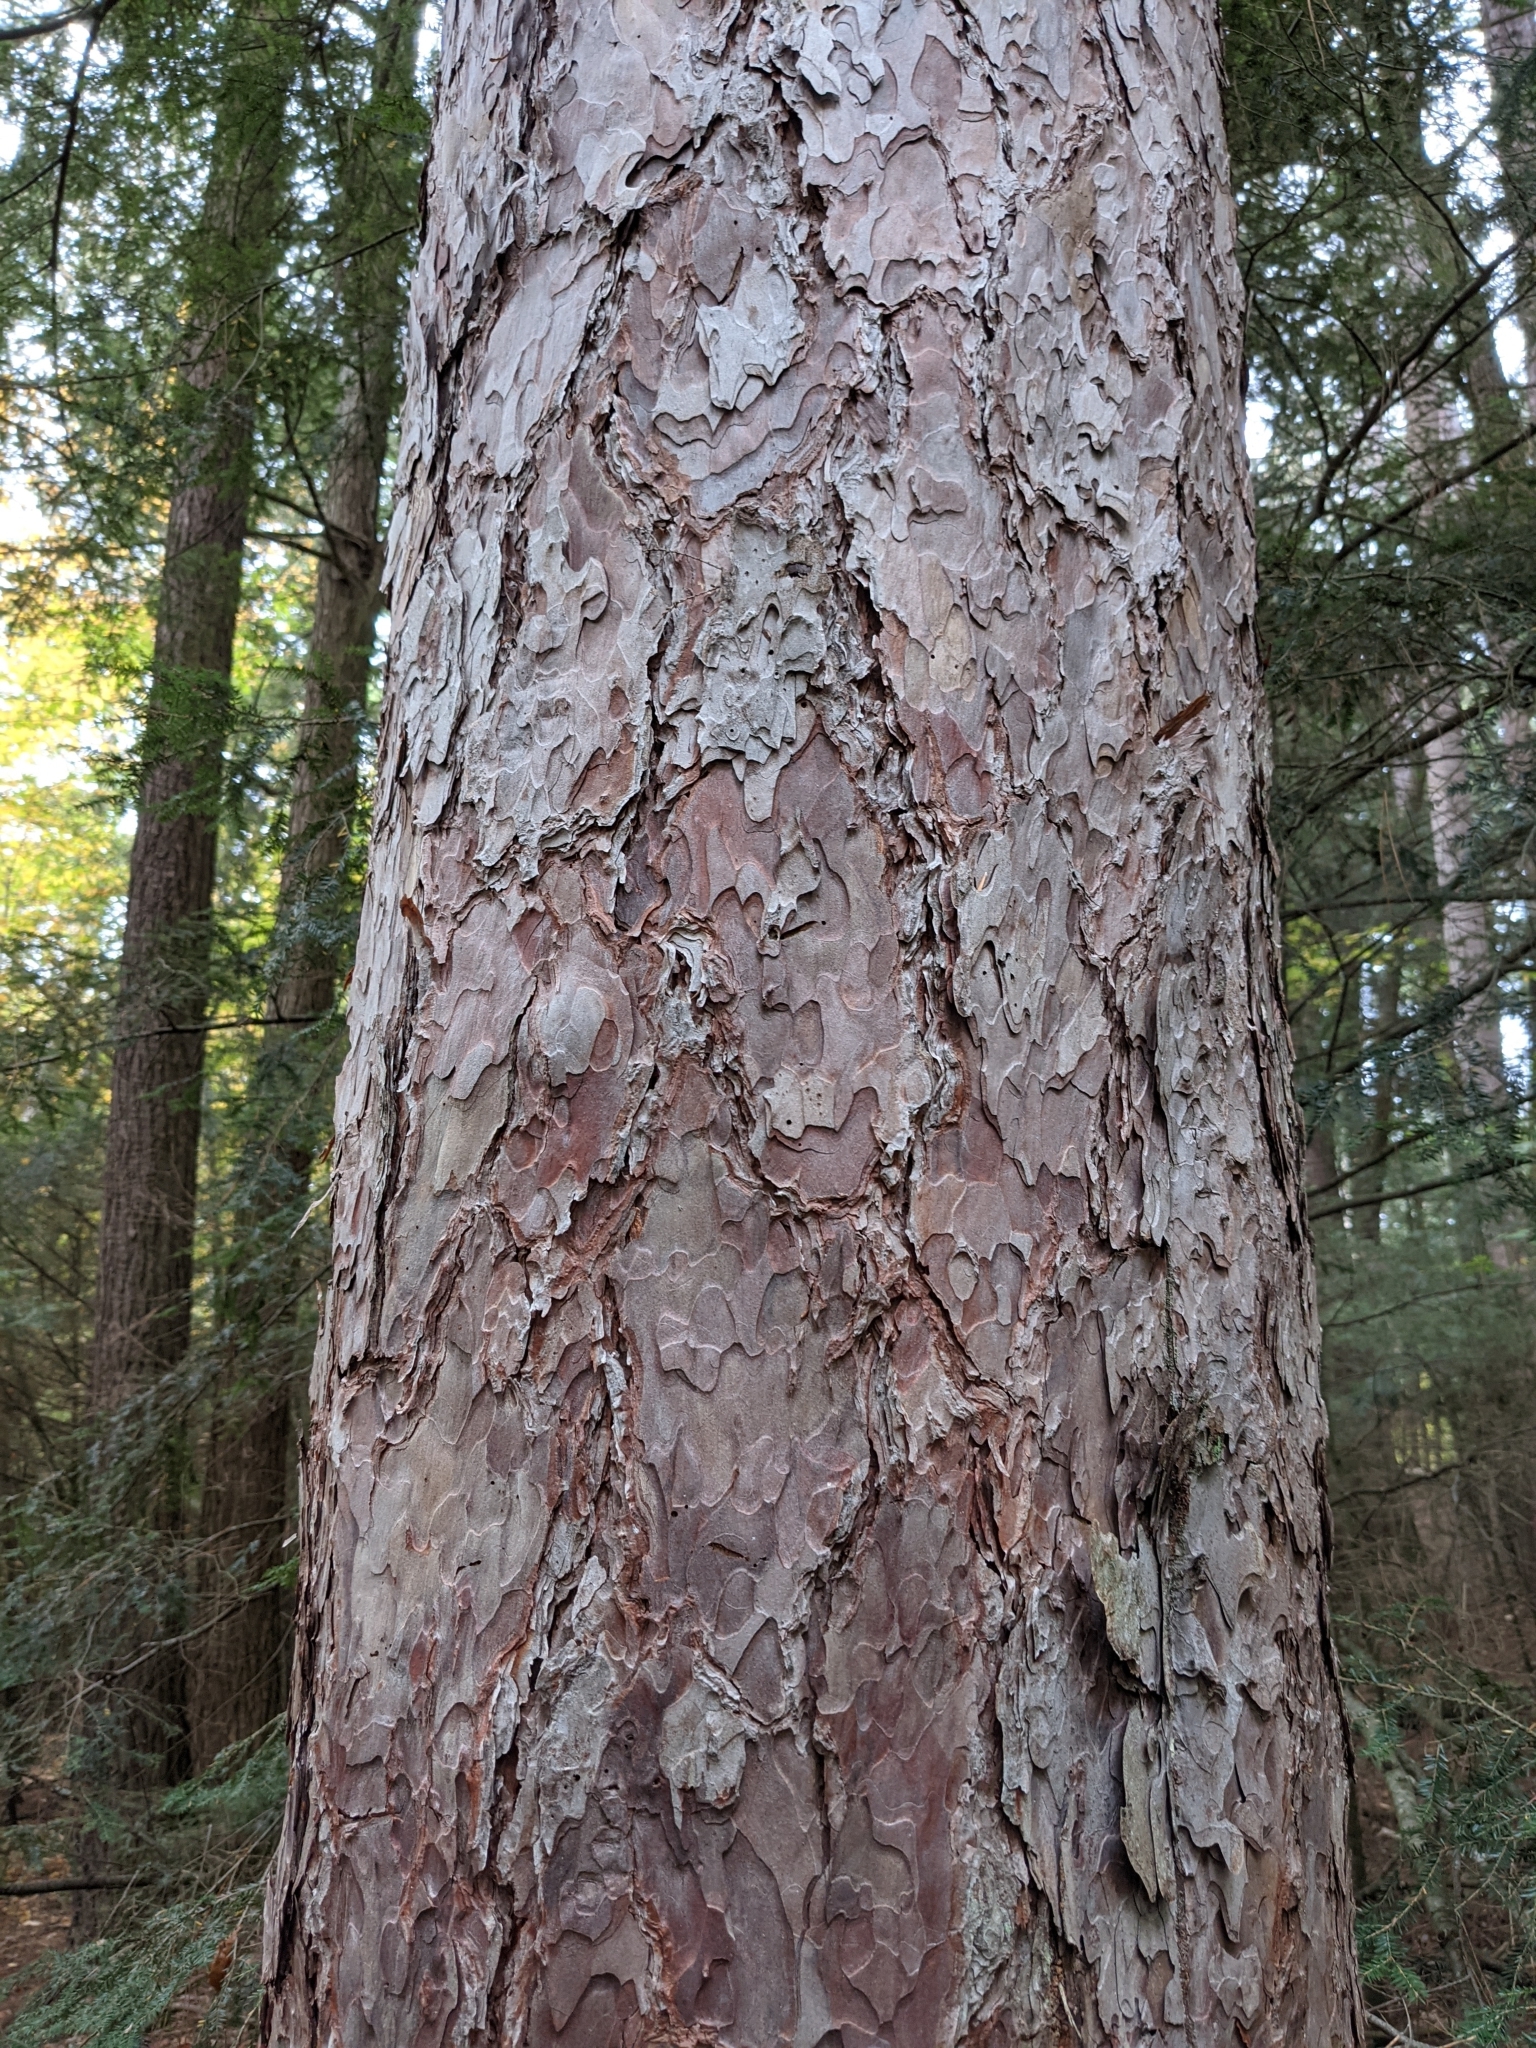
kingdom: Plantae
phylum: Tracheophyta
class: Pinopsida
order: Pinales
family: Pinaceae
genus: Pinus
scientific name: Pinus resinosa
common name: Norway pine
